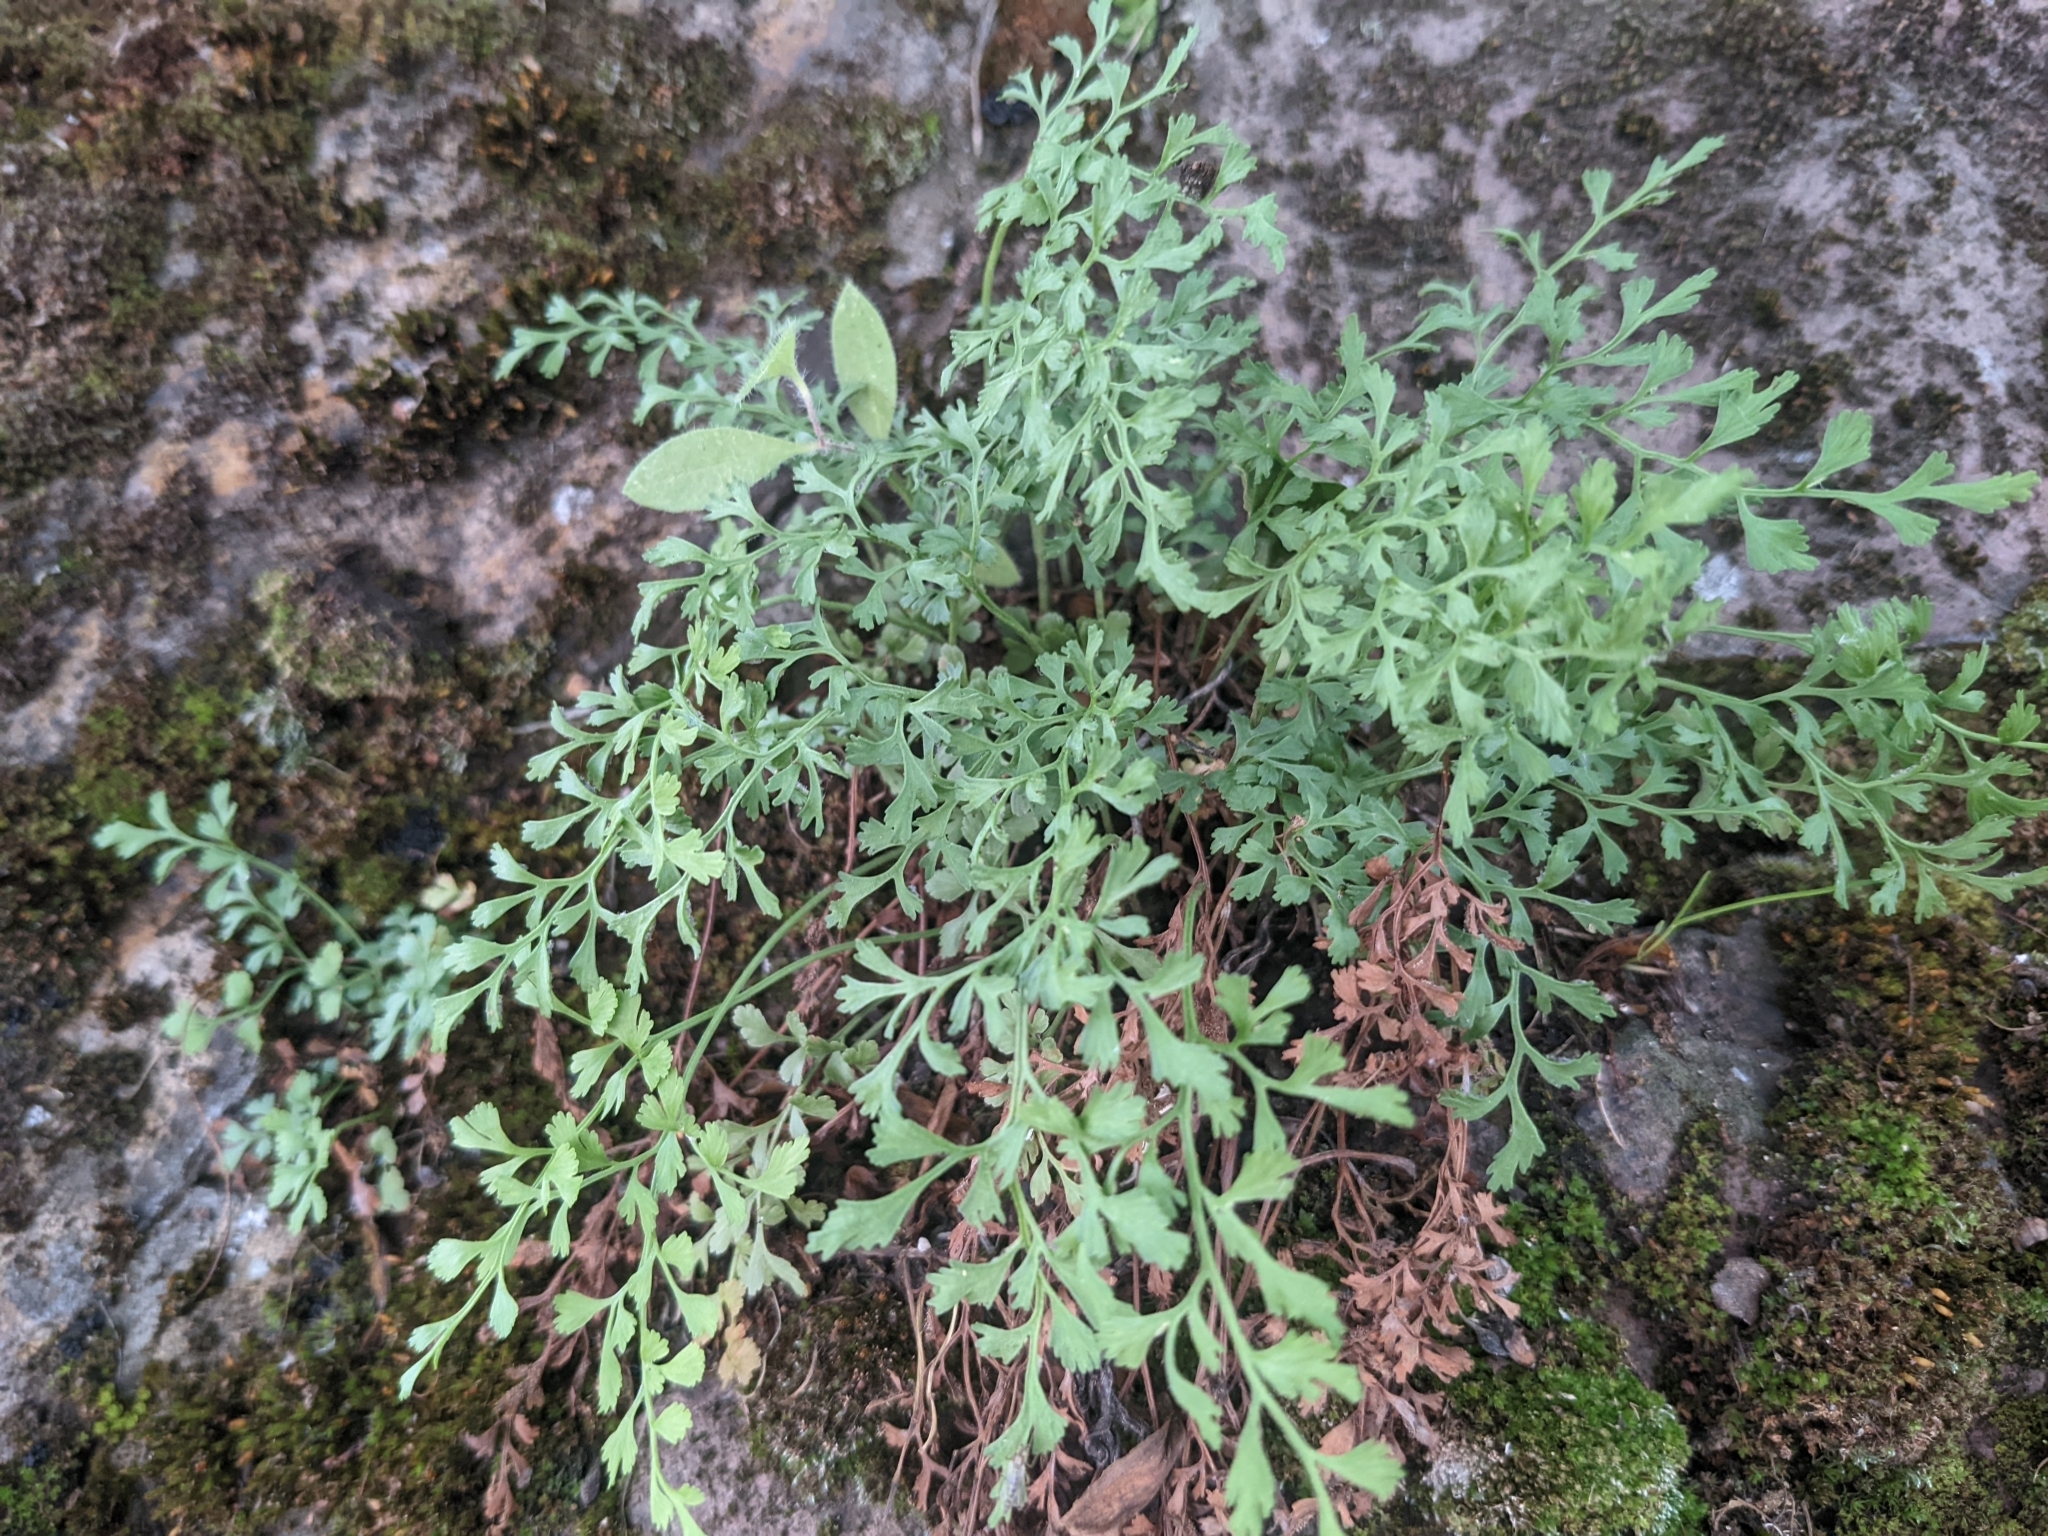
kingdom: Plantae
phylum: Tracheophyta
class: Polypodiopsida
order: Polypodiales
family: Aspleniaceae
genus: Asplenium
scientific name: Asplenium ruta-muraria
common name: Wall-rue
